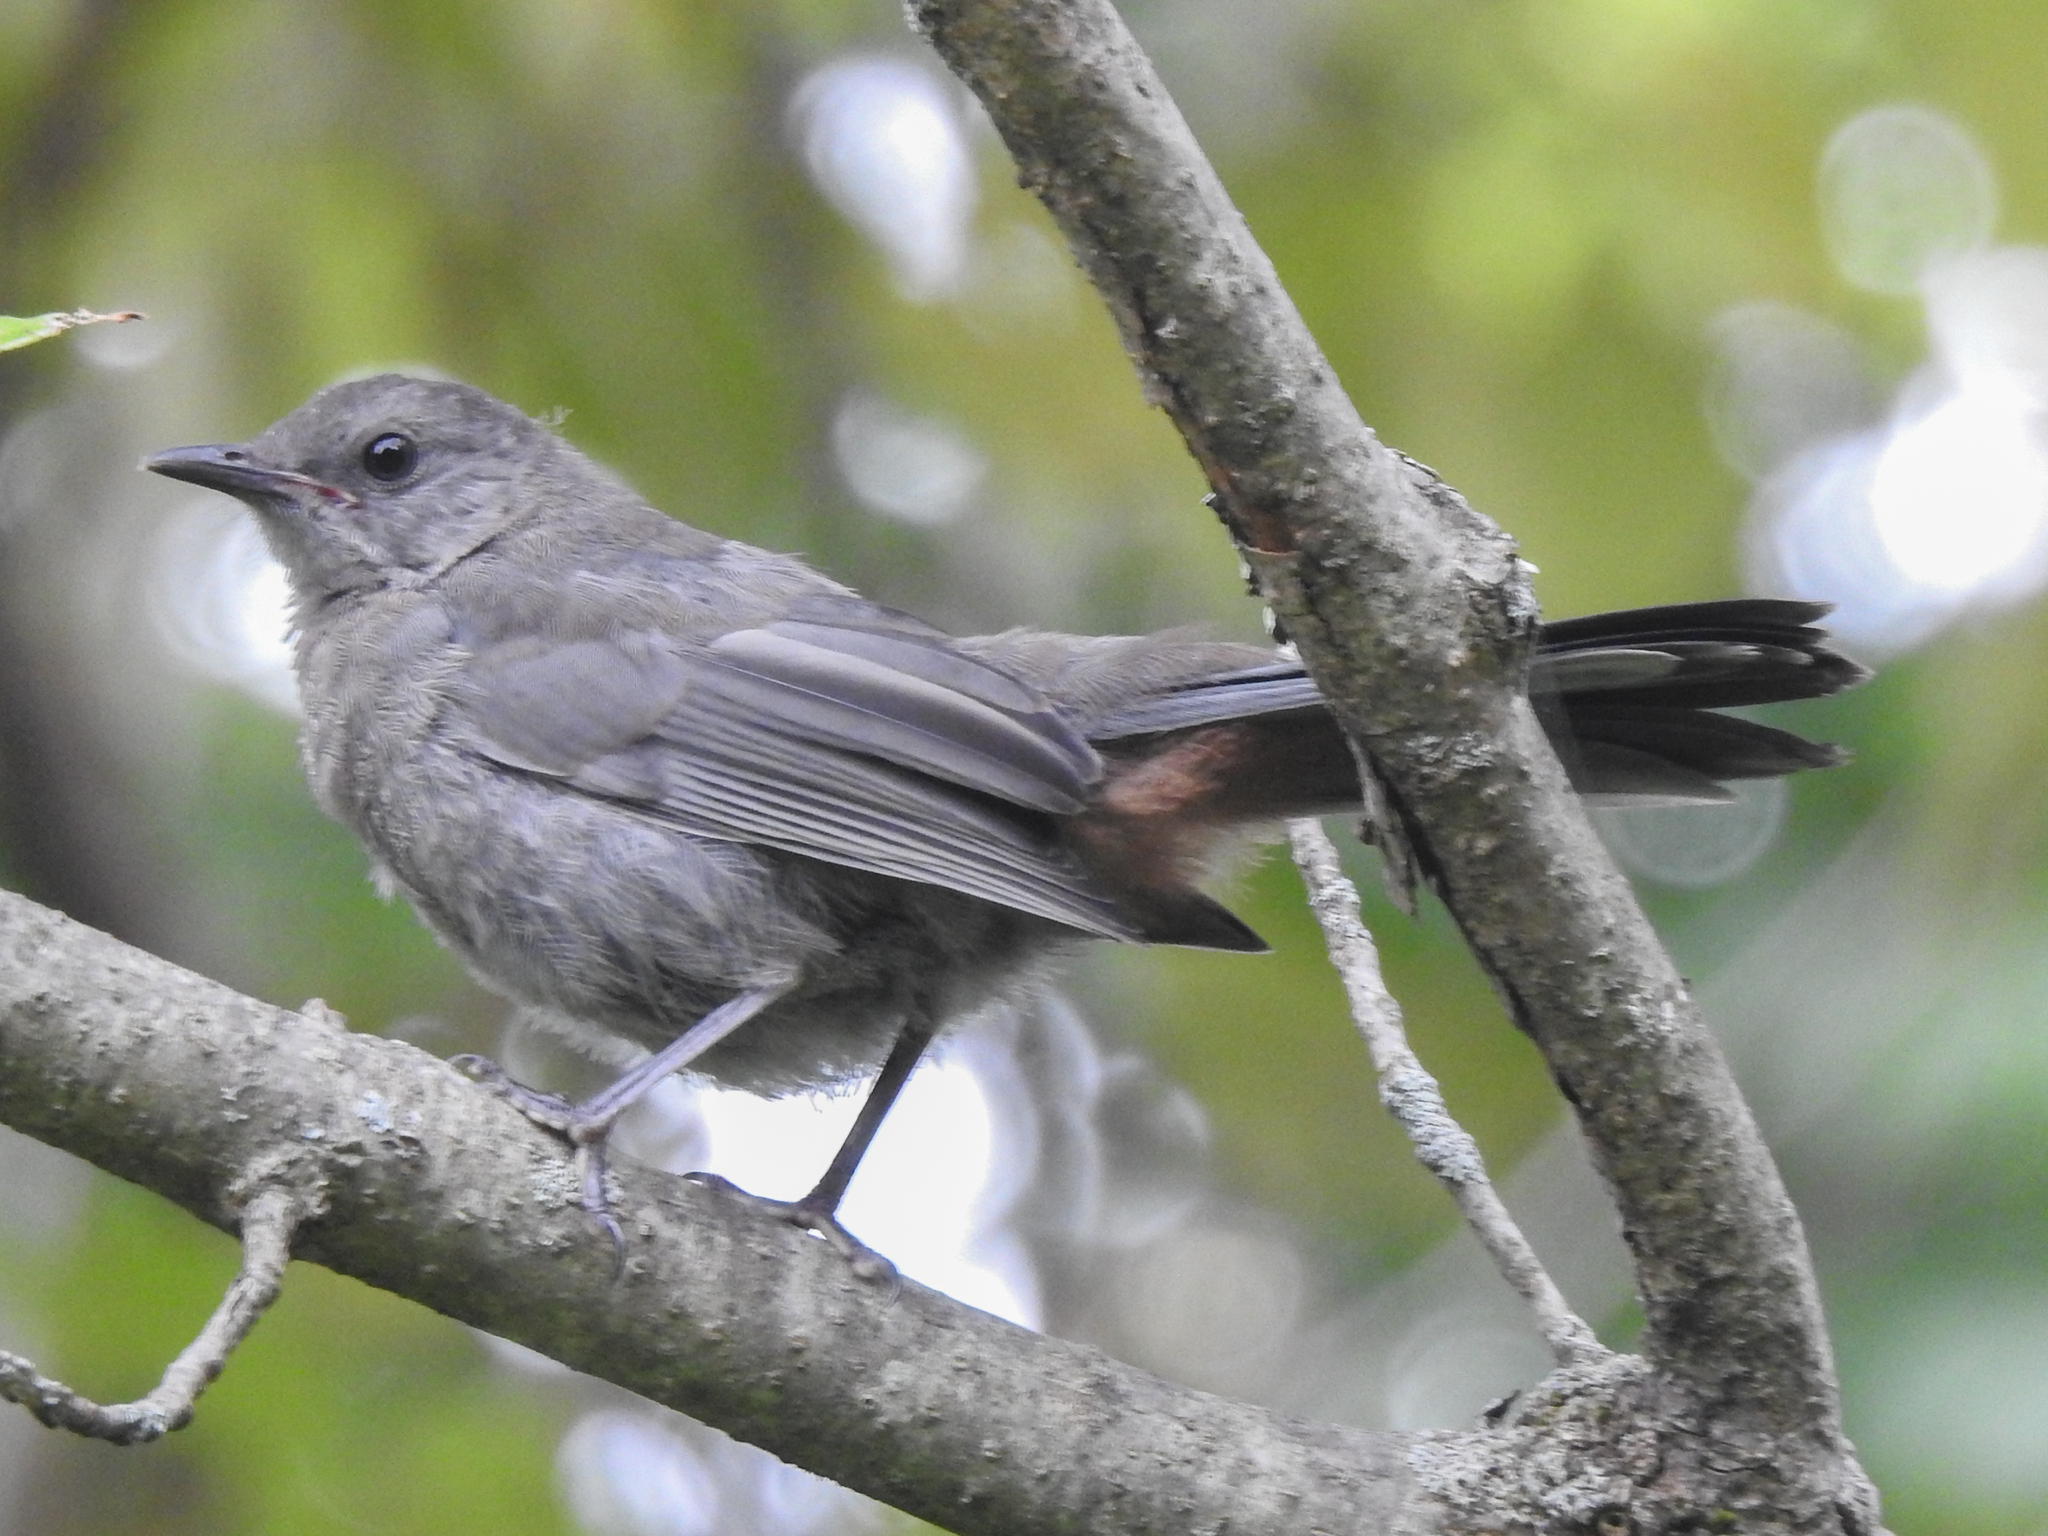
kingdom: Animalia
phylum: Chordata
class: Aves
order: Passeriformes
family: Mimidae
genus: Dumetella
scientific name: Dumetella carolinensis
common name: Gray catbird
